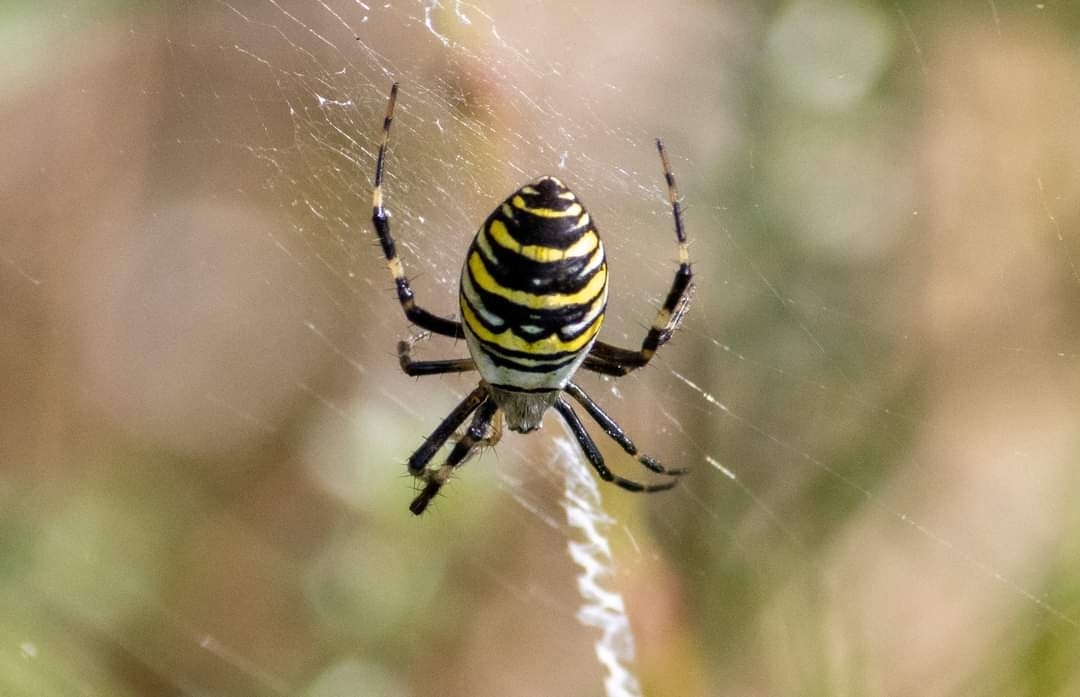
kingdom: Animalia
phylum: Arthropoda
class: Arachnida
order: Araneae
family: Araneidae
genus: Argiope
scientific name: Argiope bruennichi
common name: Wasp spider
